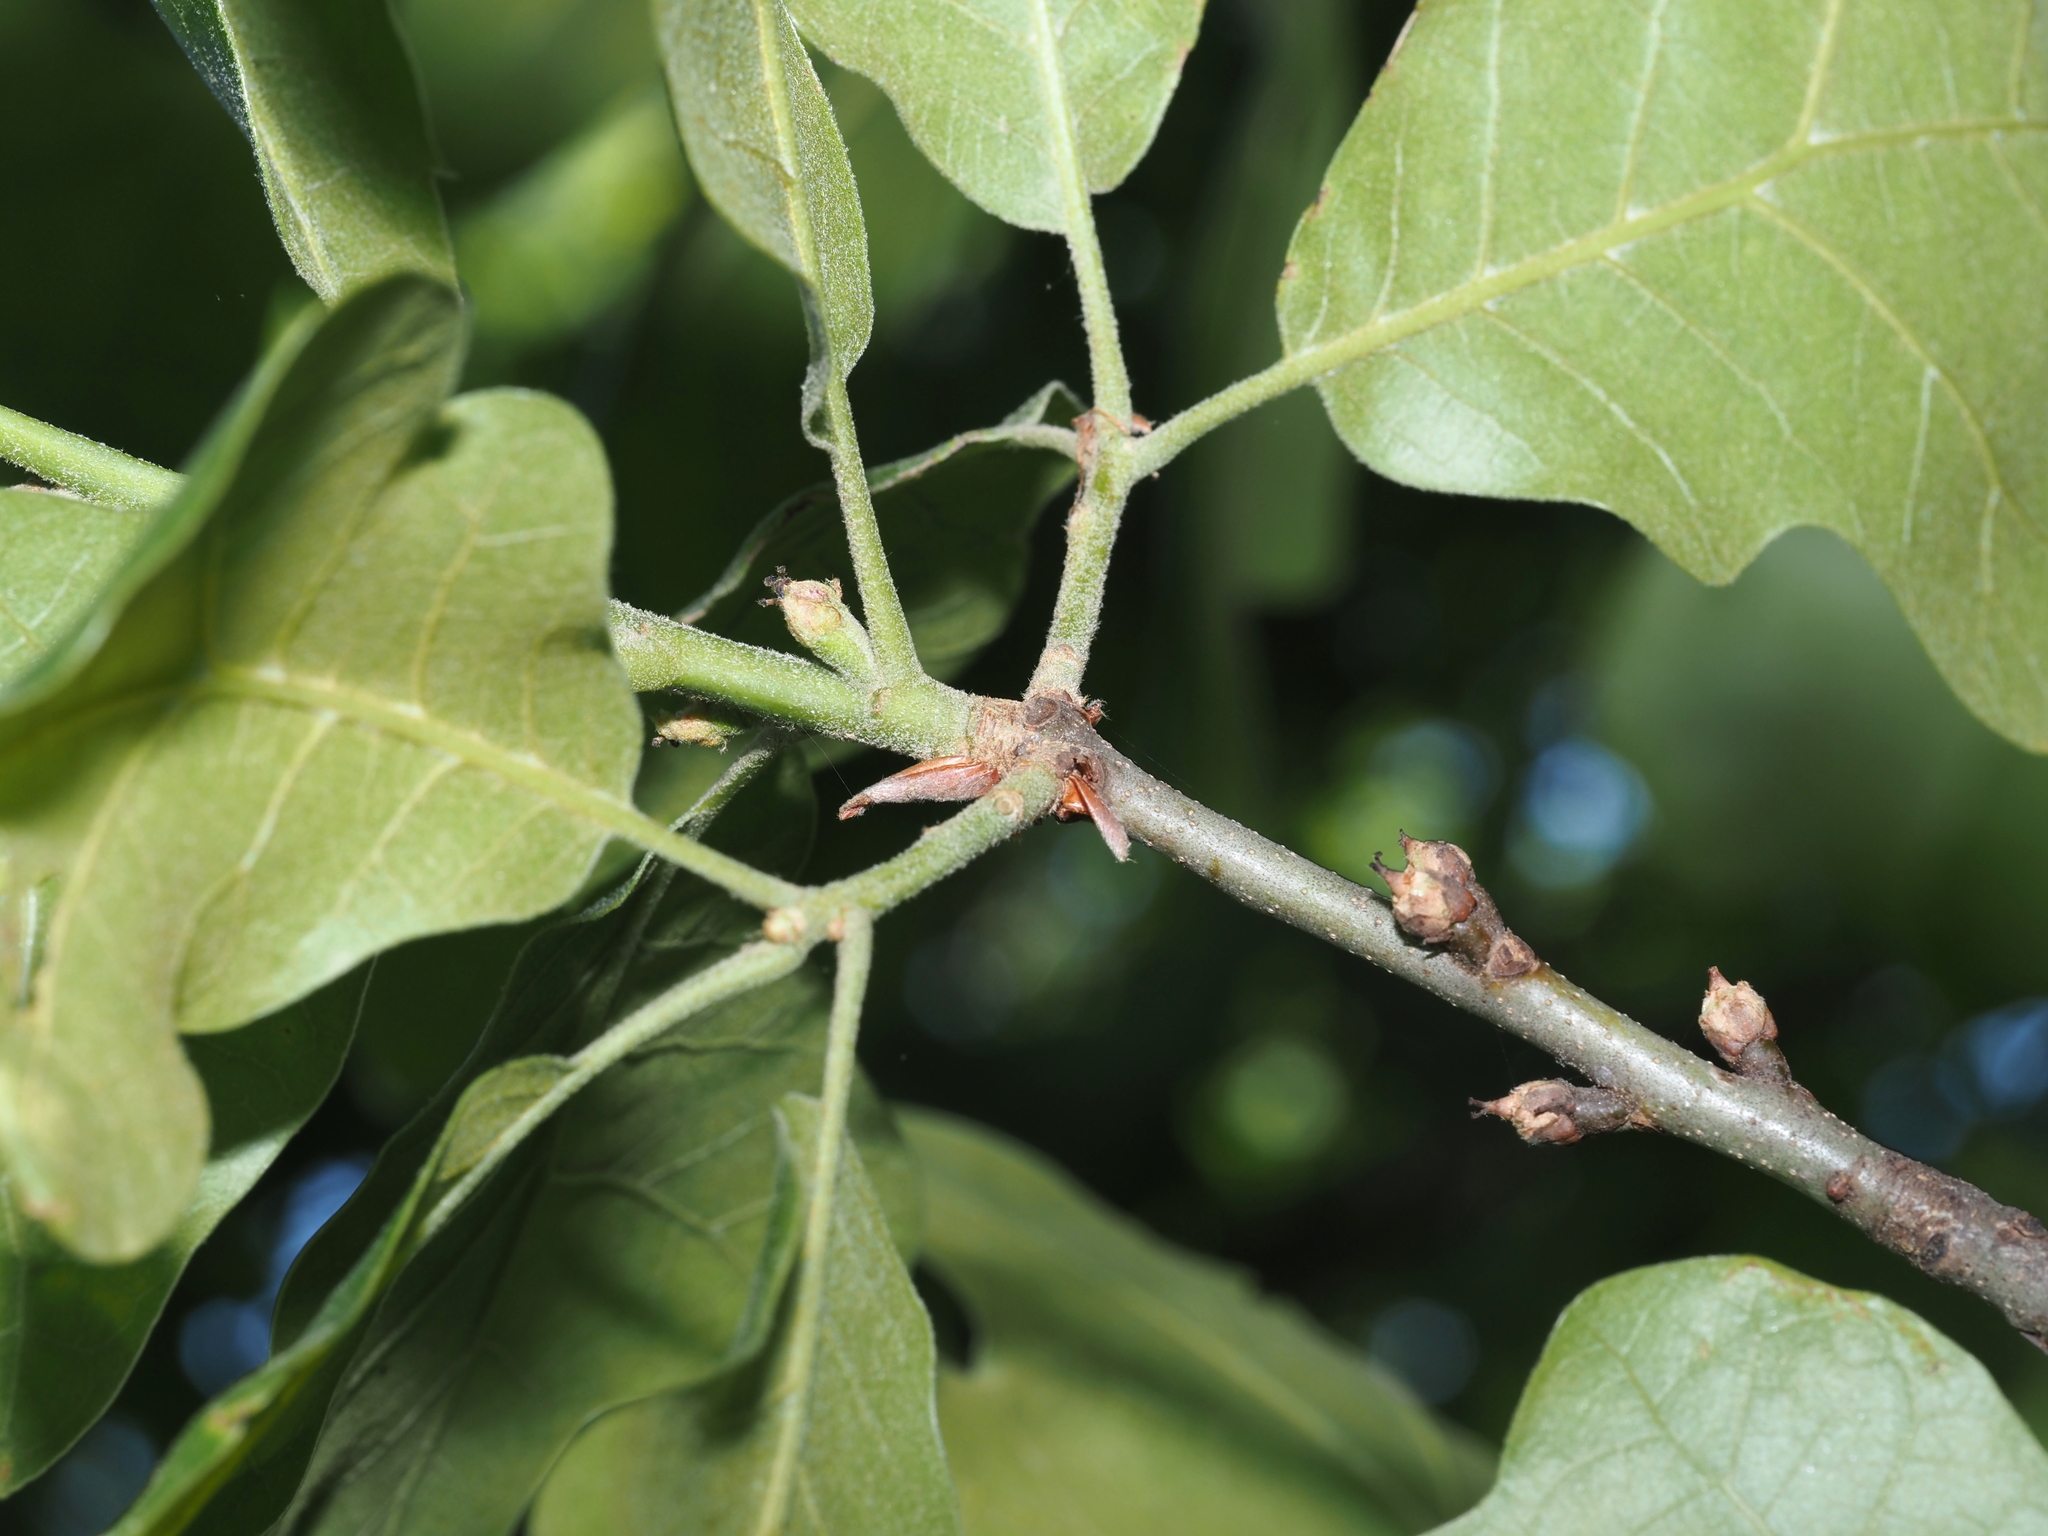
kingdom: Plantae
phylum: Tracheophyta
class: Magnoliopsida
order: Fagales
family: Fagaceae
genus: Quercus
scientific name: Quercus marilandica
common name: Blackjack oak
